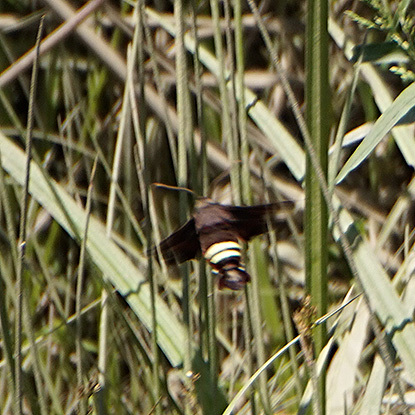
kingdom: Animalia
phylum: Arthropoda
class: Insecta
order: Lepidoptera
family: Sphingidae
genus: Amphion
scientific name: Amphion floridensis
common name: Nessus sphinx
